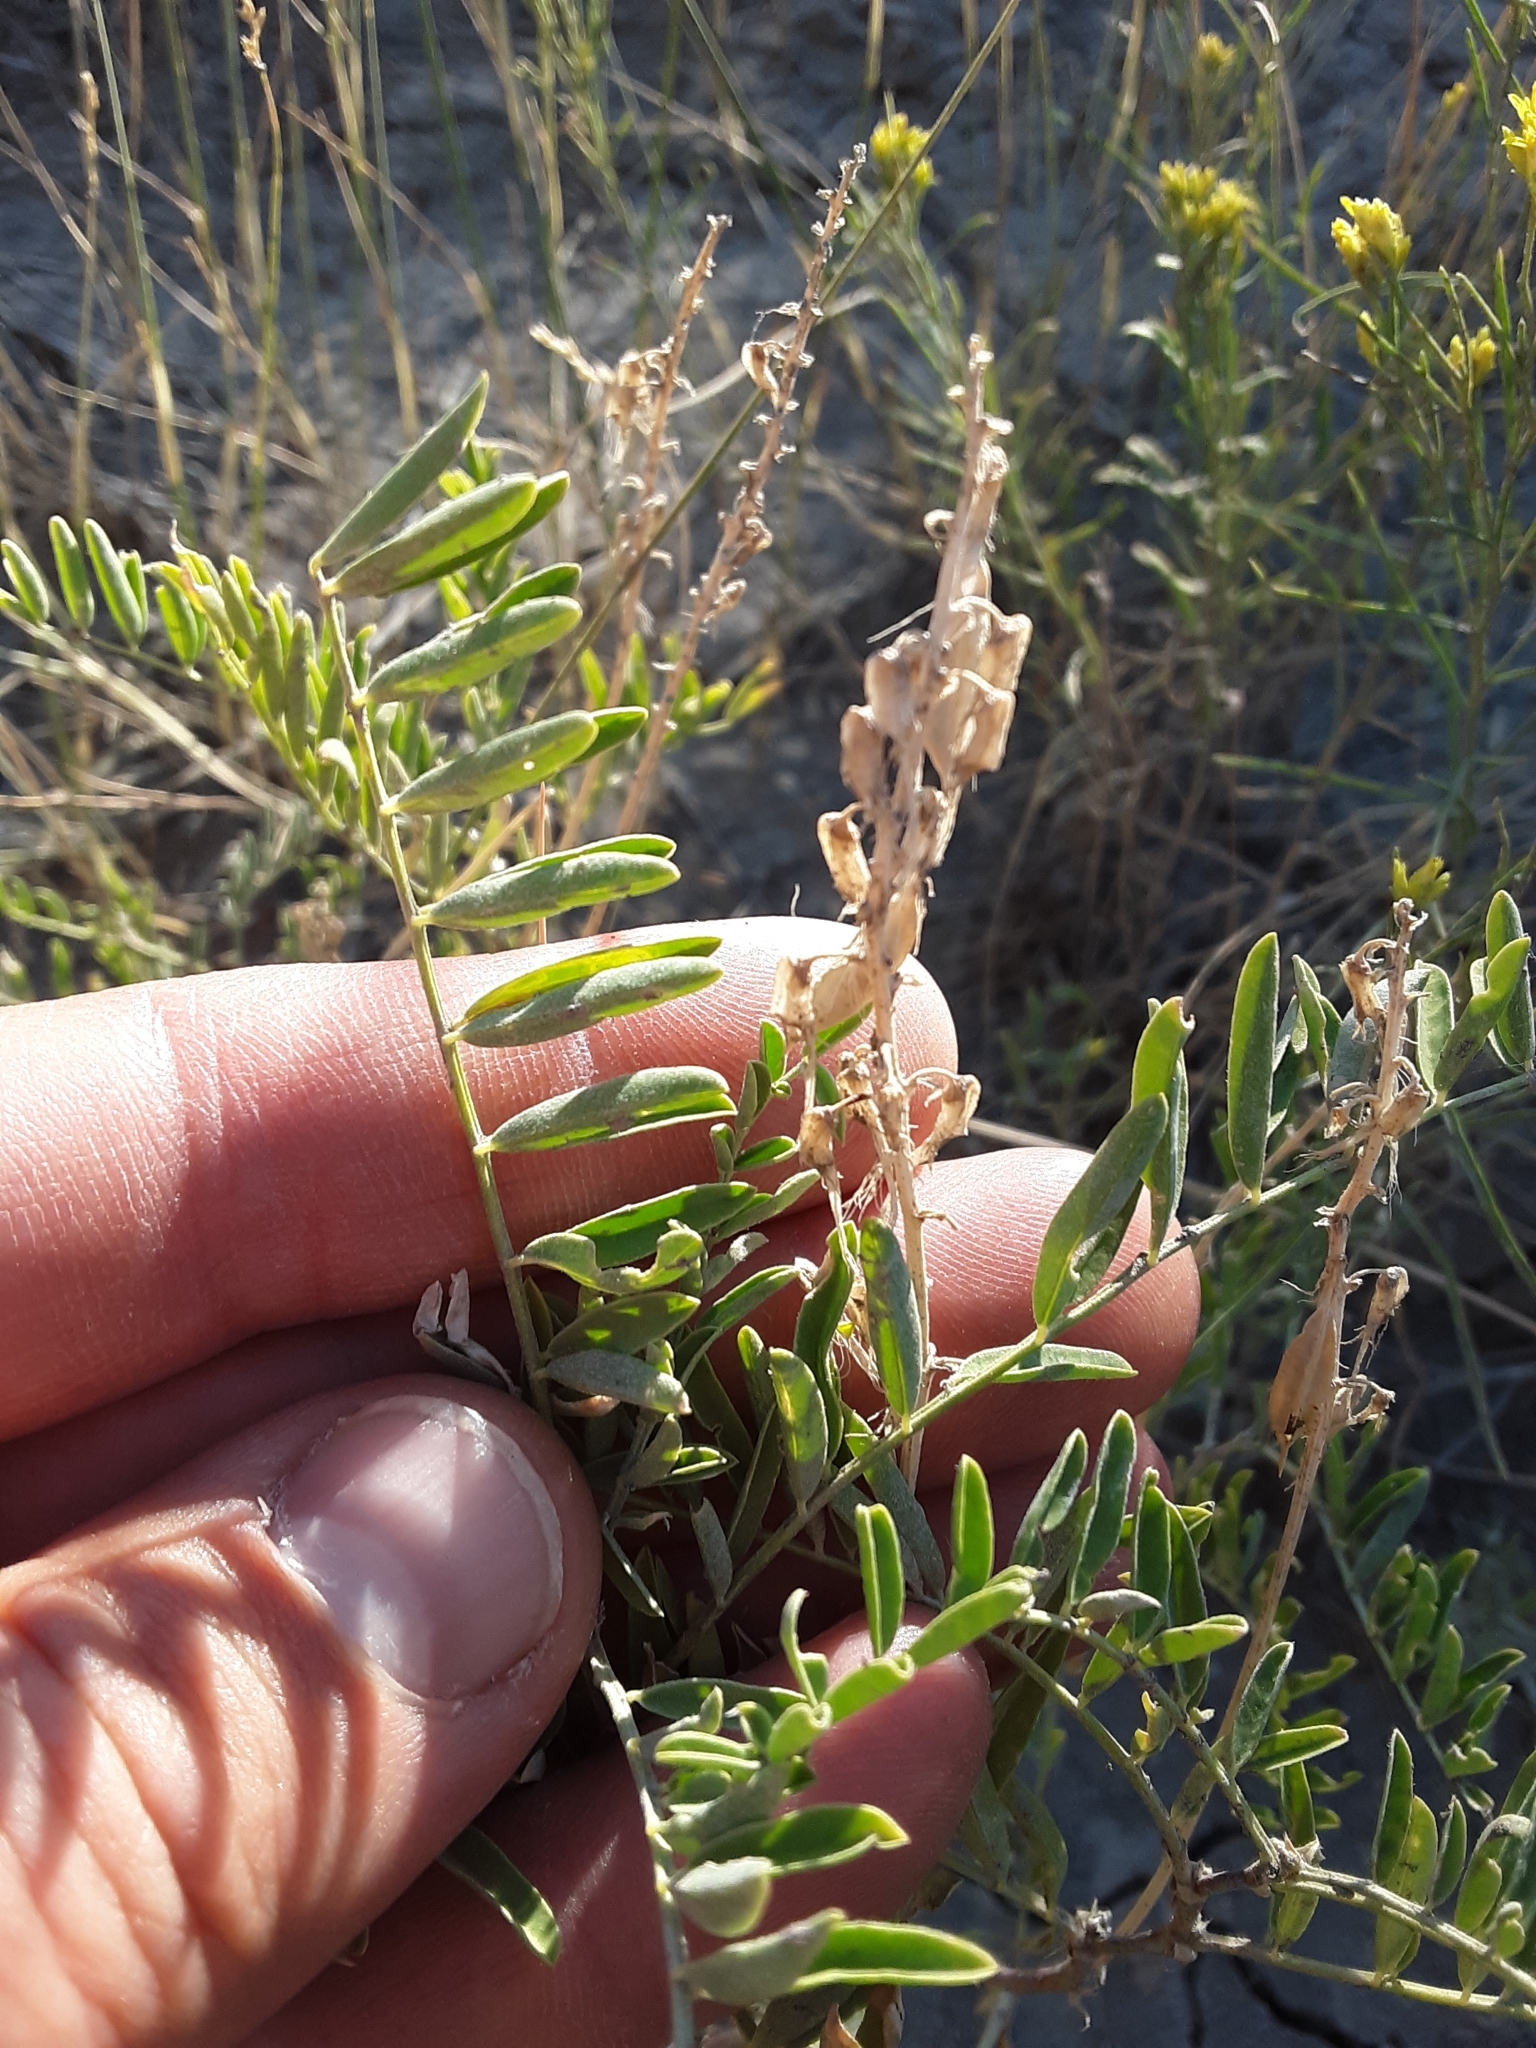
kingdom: Plantae
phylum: Tracheophyta
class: Magnoliopsida
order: Fabales
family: Fabaceae
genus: Astragalus
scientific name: Astragalus bisulcatus
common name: Two-groove milk-vetch
